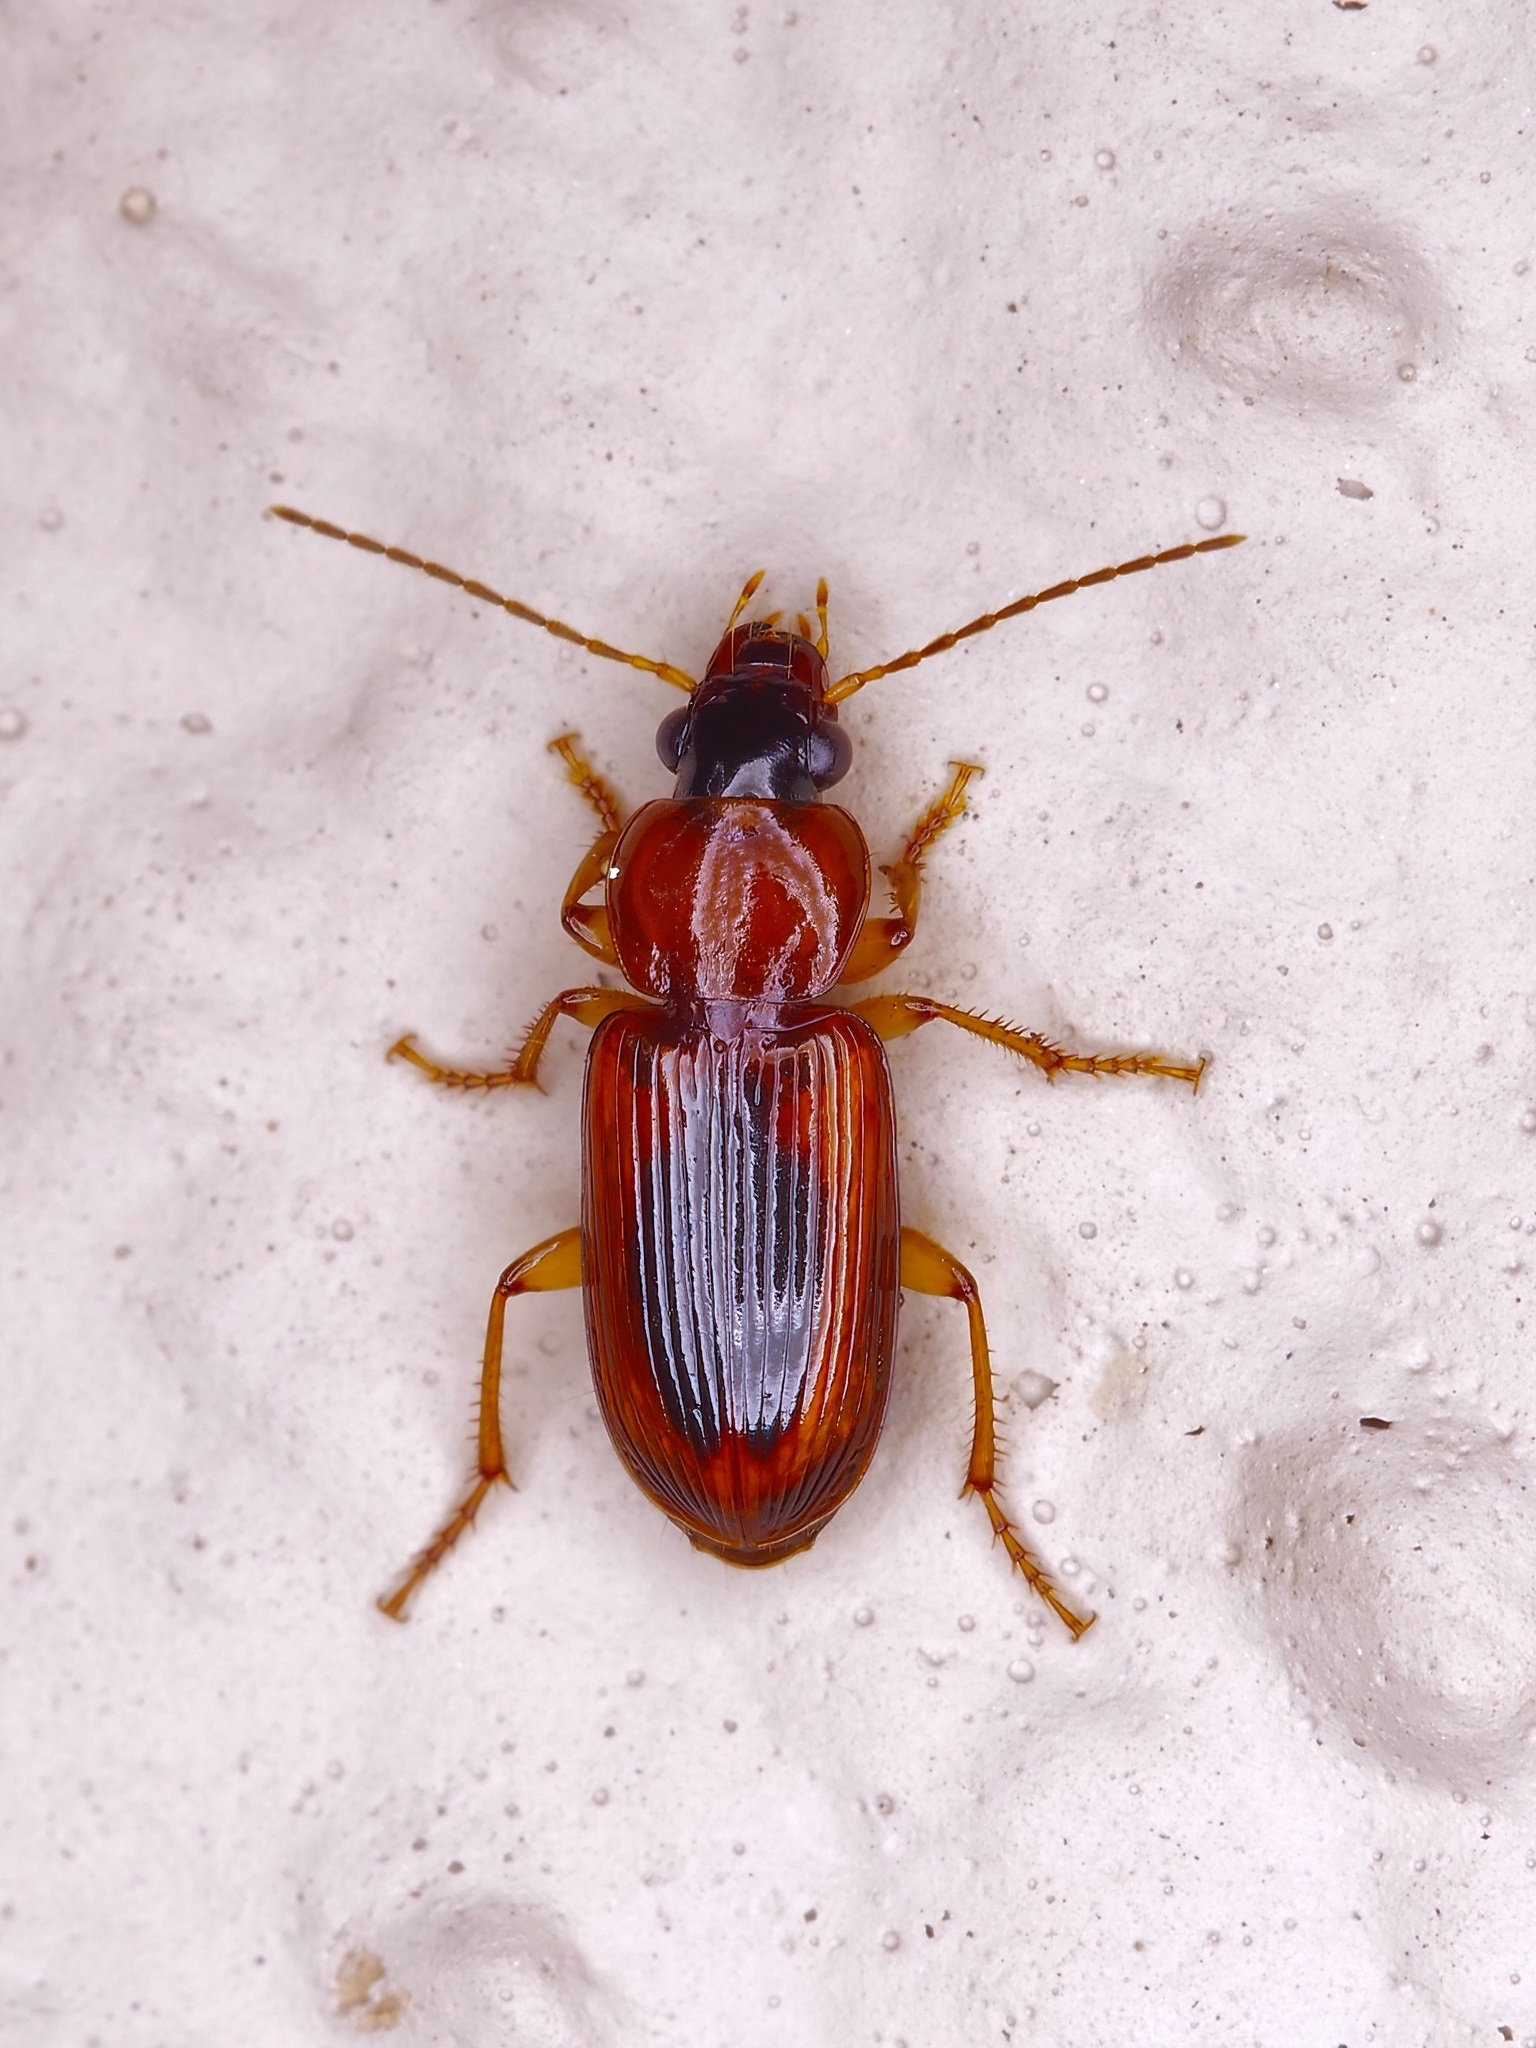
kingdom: Animalia
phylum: Arthropoda
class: Insecta
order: Coleoptera
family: Carabidae
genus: Stenolophus
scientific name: Stenolophus dissimilis
